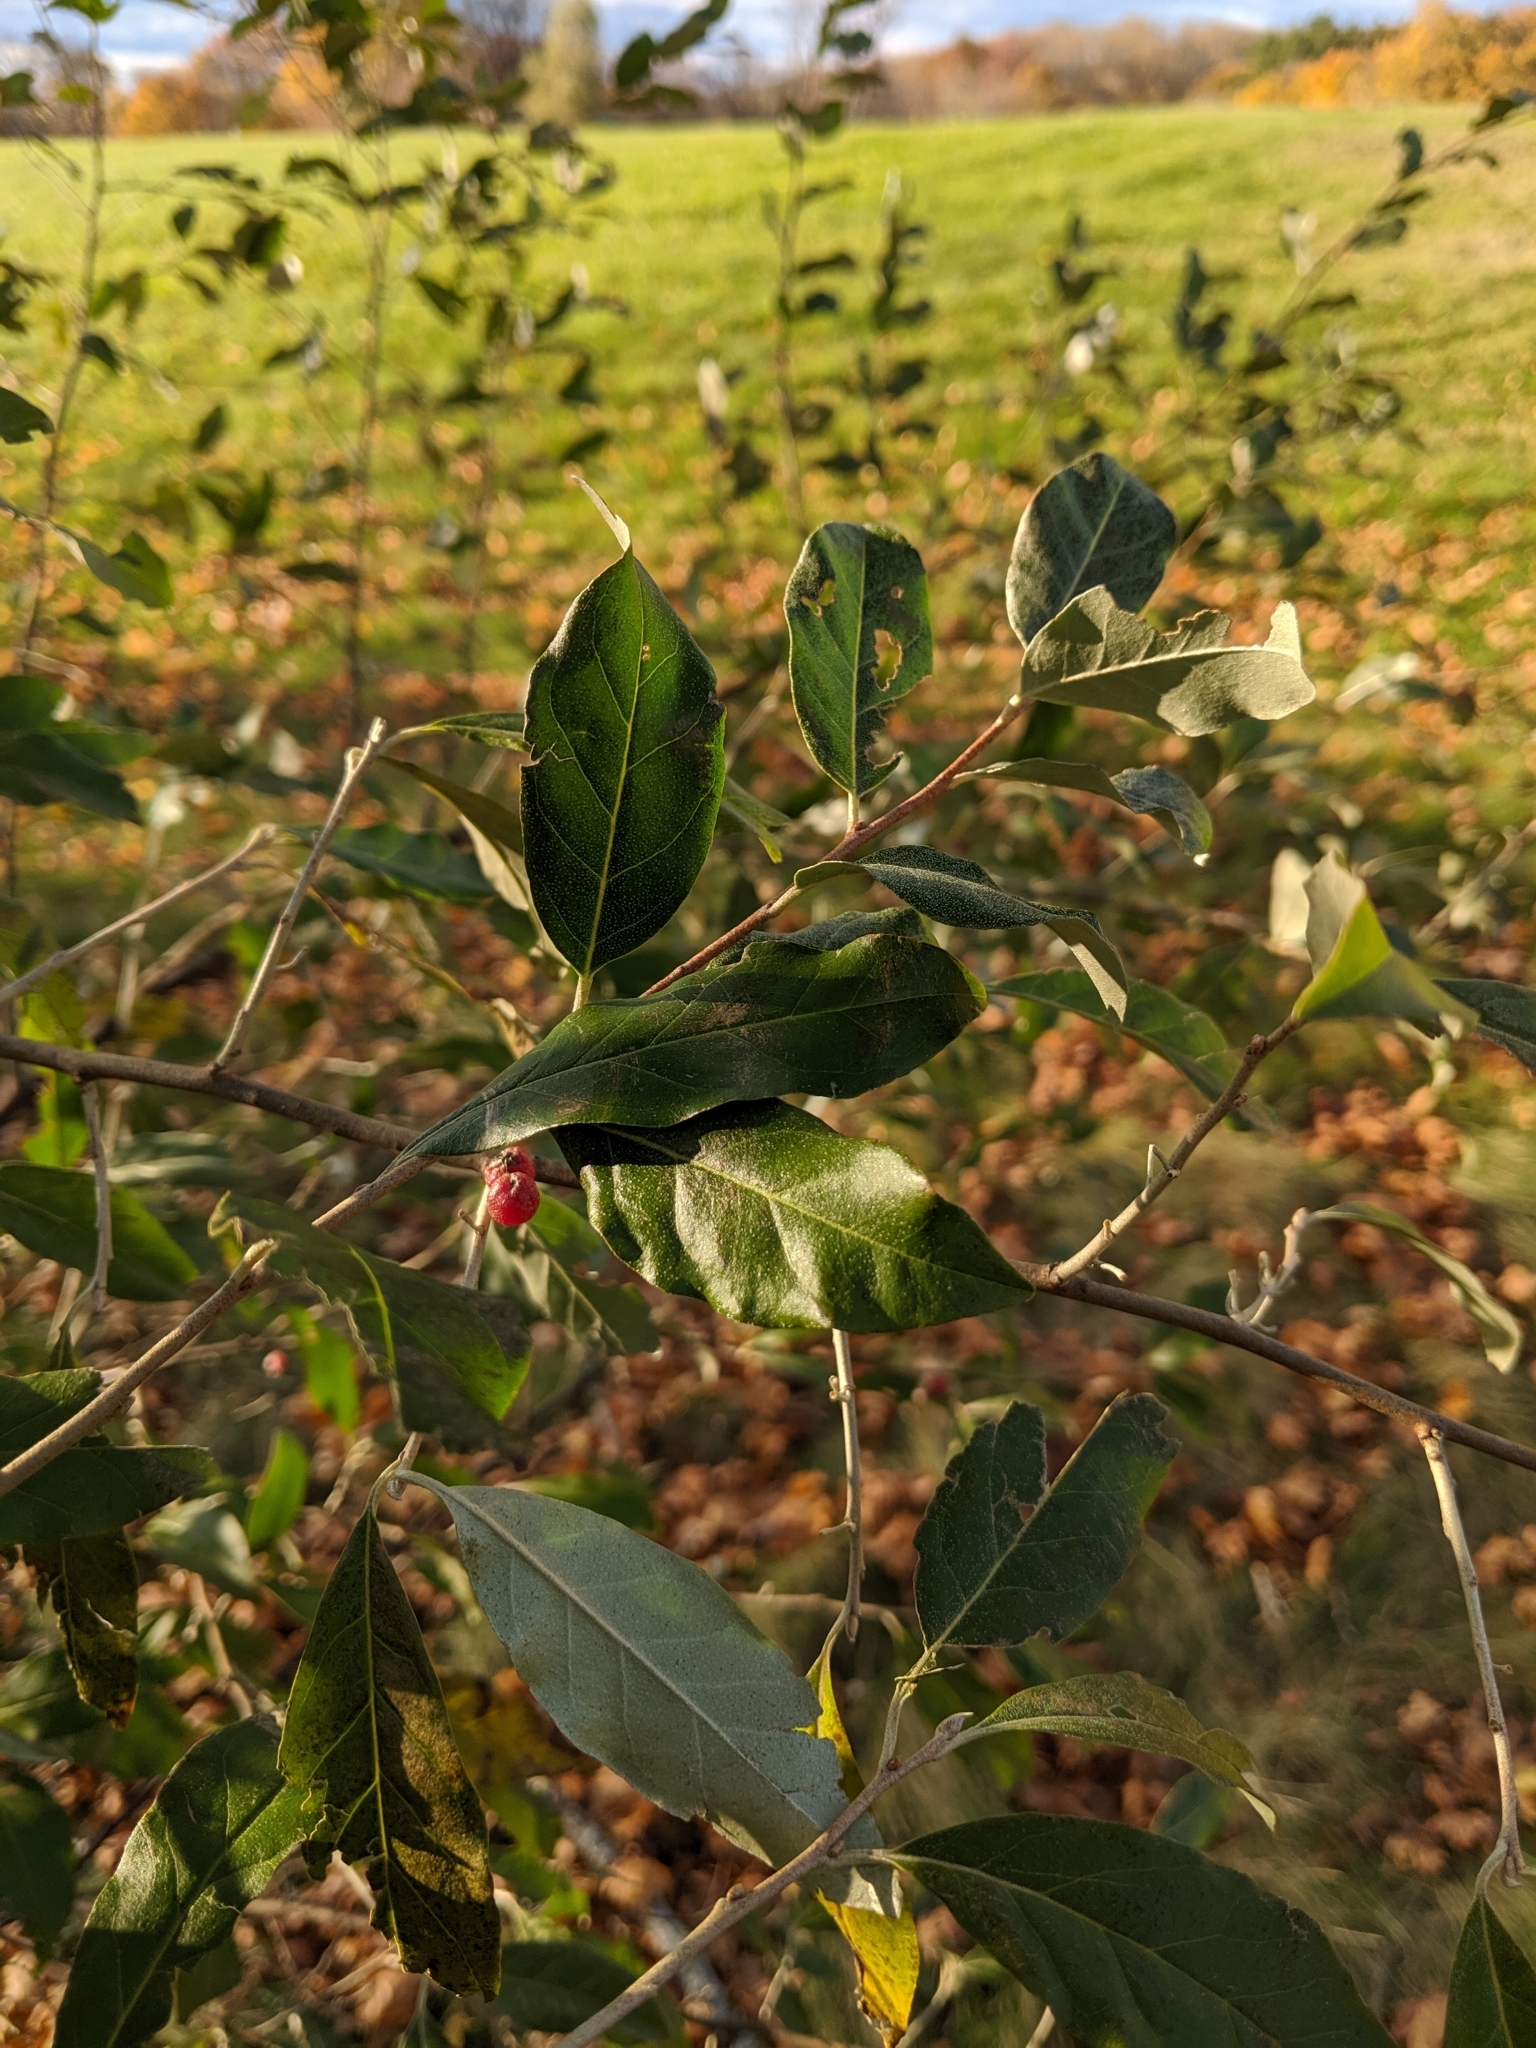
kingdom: Plantae
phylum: Tracheophyta
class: Magnoliopsida
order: Rosales
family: Elaeagnaceae
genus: Elaeagnus
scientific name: Elaeagnus umbellata
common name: Autumn olive
